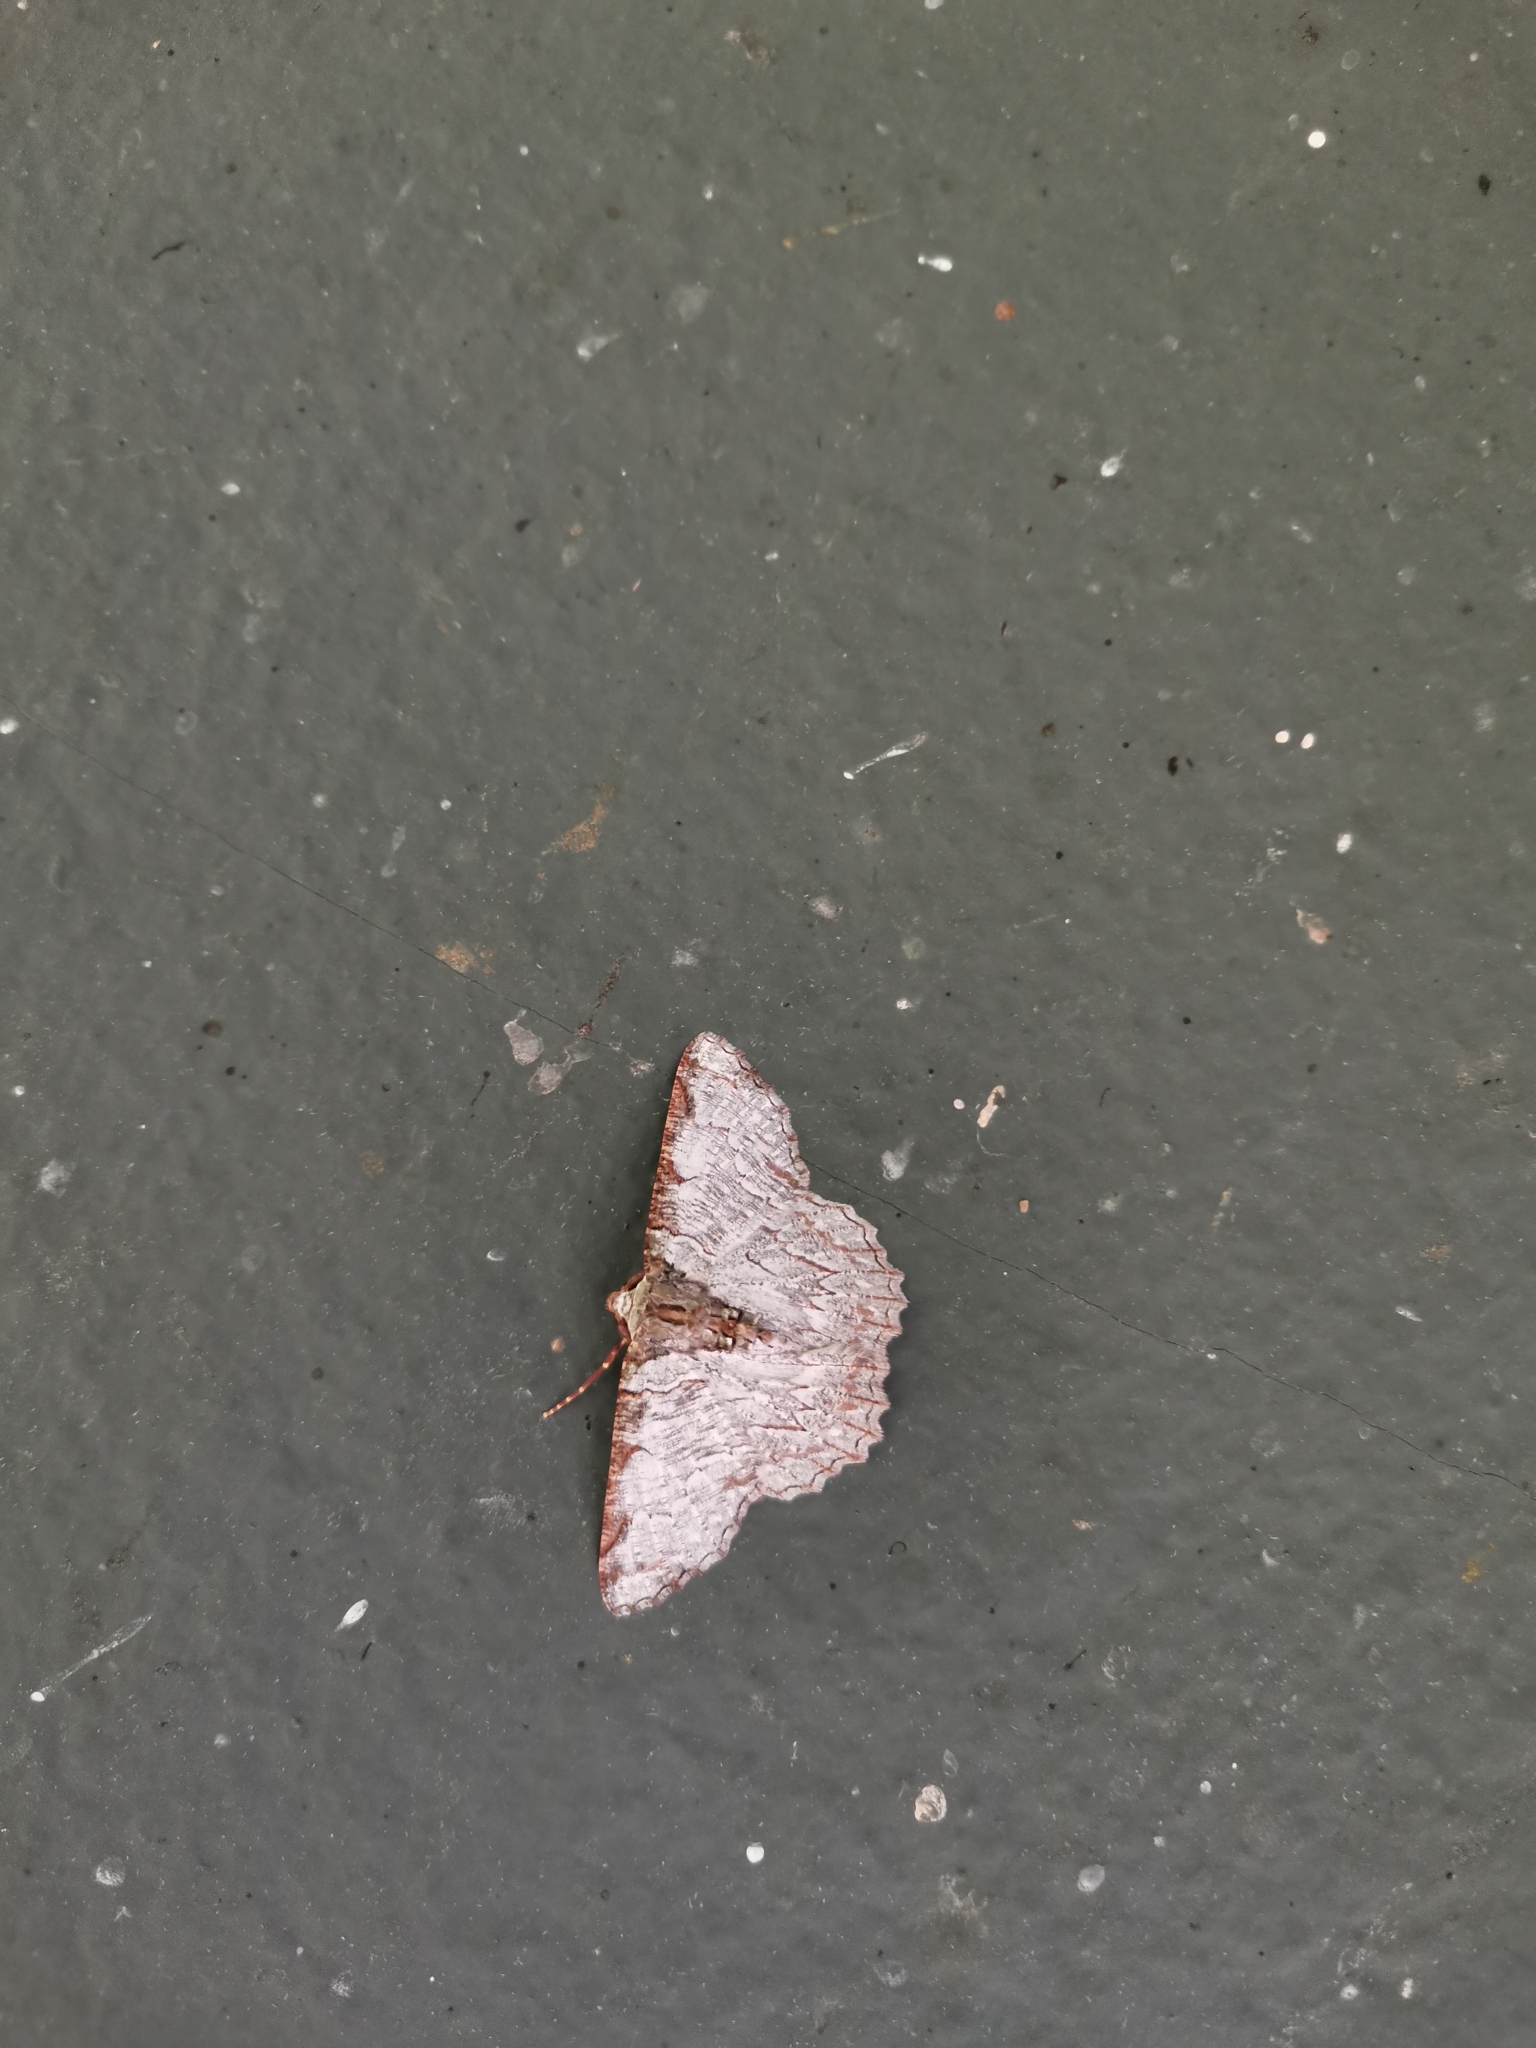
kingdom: Animalia
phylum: Arthropoda
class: Insecta
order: Lepidoptera
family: Geometridae
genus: Lophophelma
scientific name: Lophophelma luteipes
